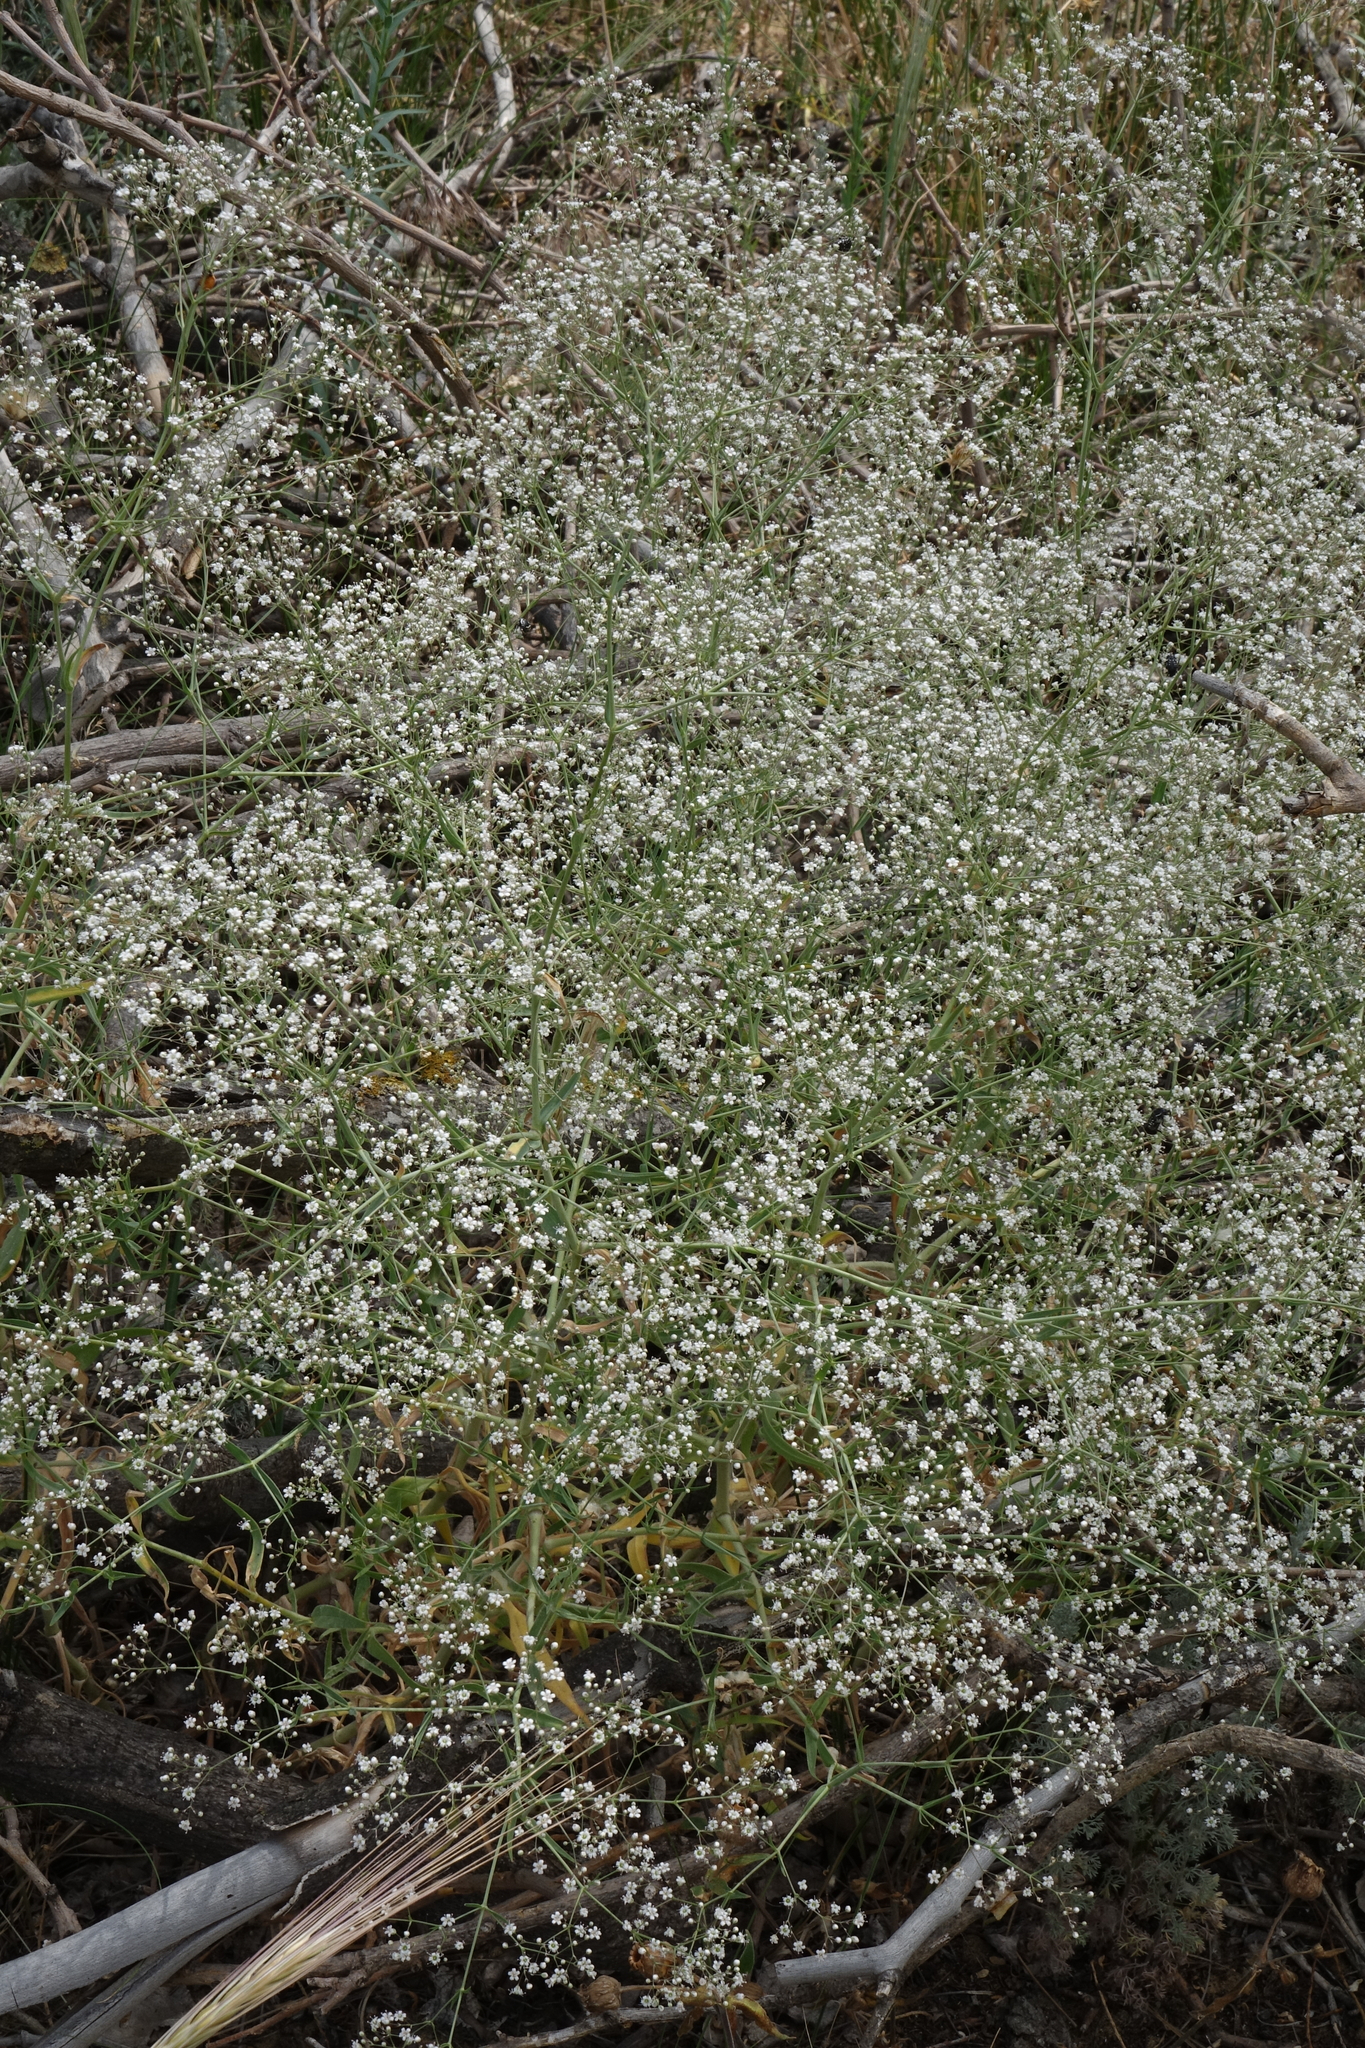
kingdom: Plantae
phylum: Tracheophyta
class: Magnoliopsida
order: Caryophyllales
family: Caryophyllaceae
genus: Gypsophila
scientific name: Gypsophila paniculata
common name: Baby's-breath
